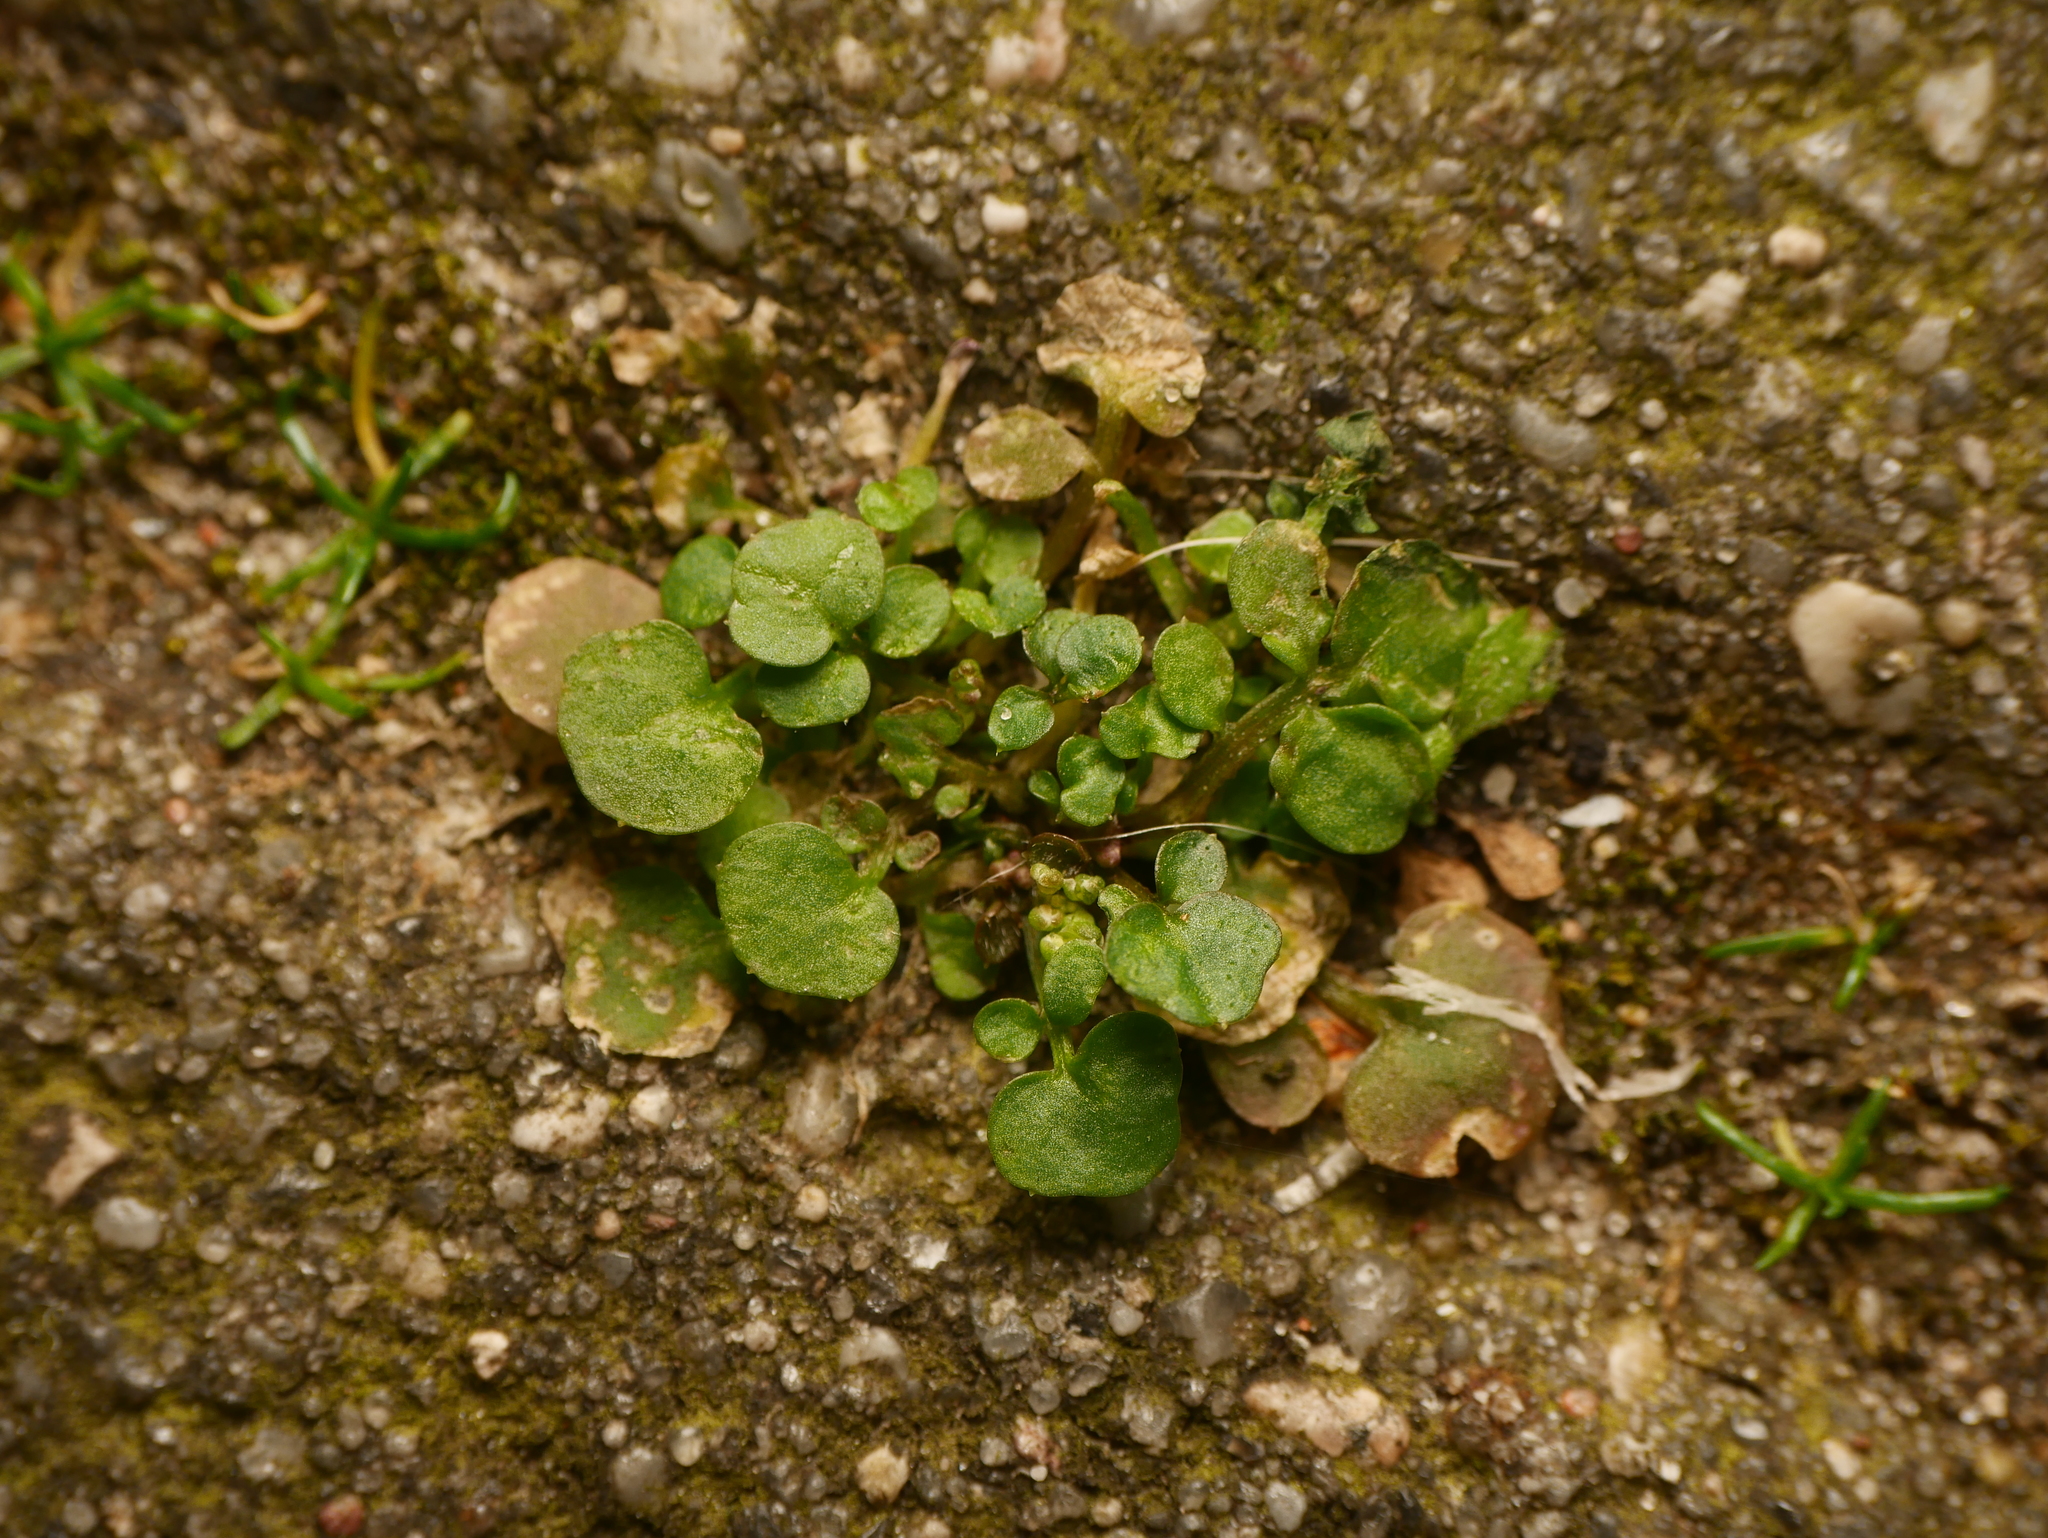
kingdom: Plantae
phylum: Tracheophyta
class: Magnoliopsida
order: Brassicales
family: Brassicaceae
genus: Cardamine
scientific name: Cardamine hirsuta
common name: Hairy bittercress
